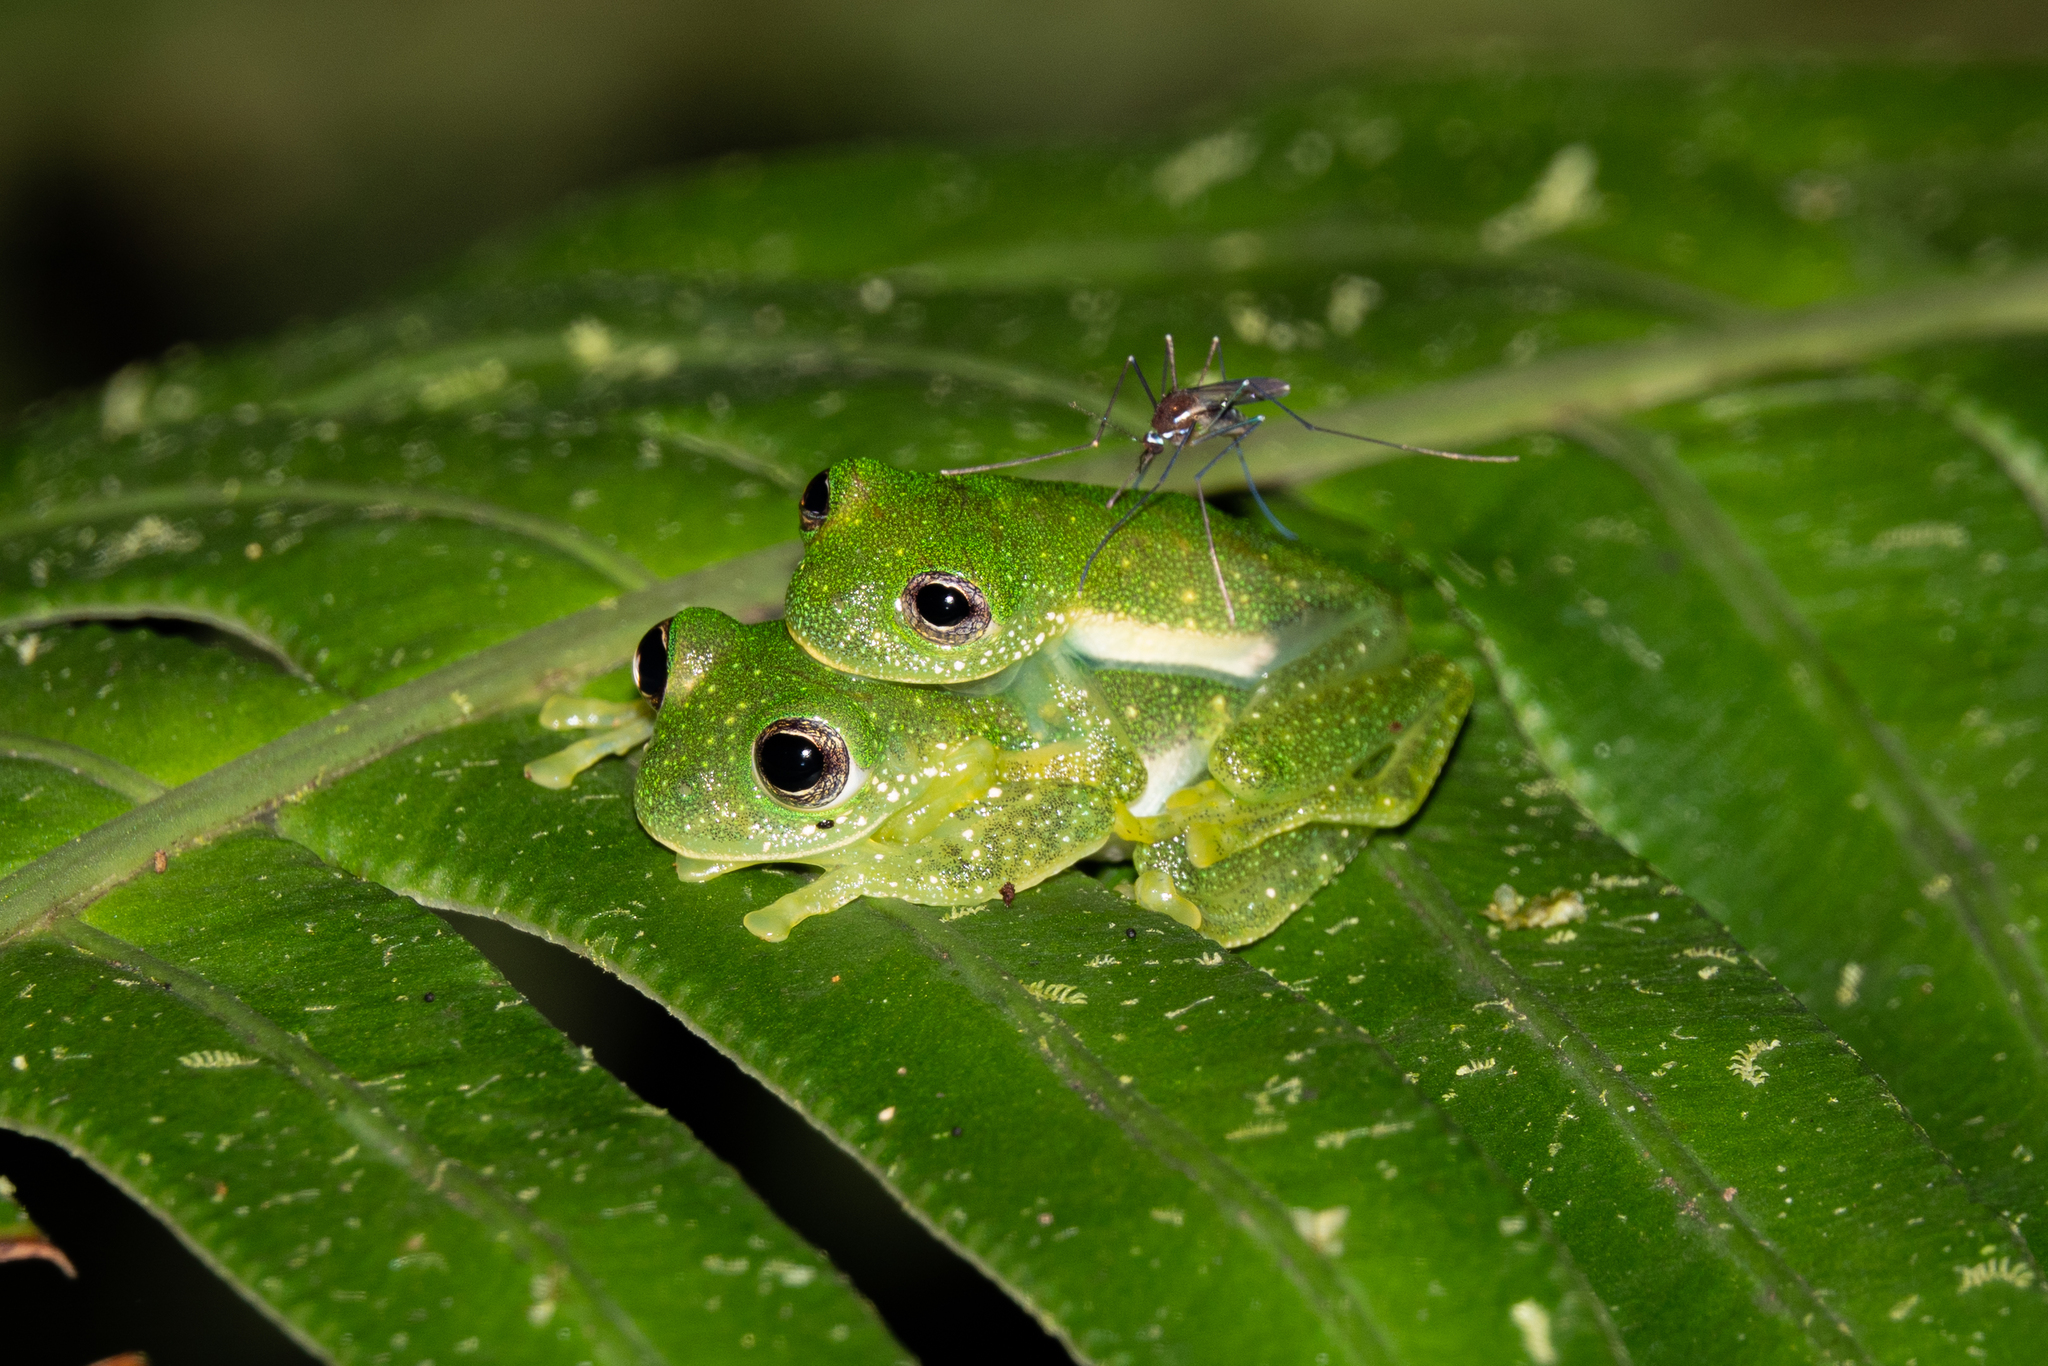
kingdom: Animalia
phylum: Chordata
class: Amphibia
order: Anura
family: Centrolenidae
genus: Centrolene
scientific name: Centrolene sanchezi
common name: Sanchez's giant glass frog
